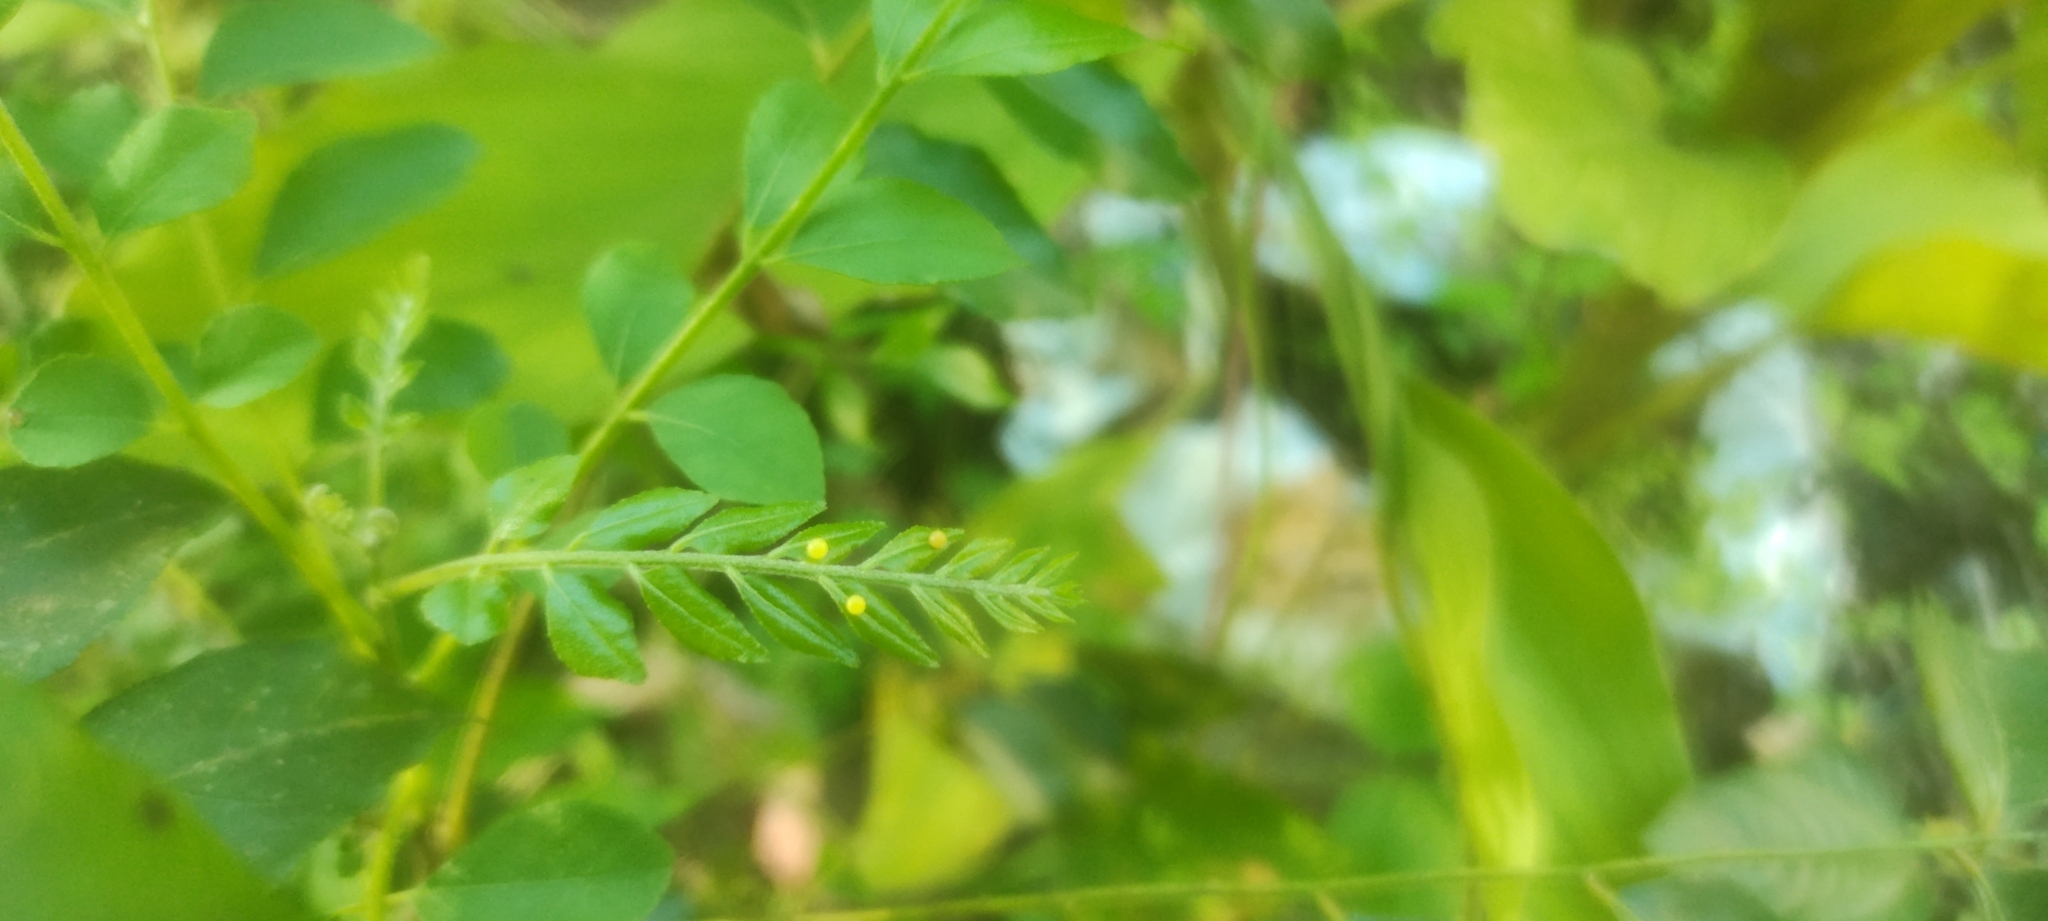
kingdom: Animalia
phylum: Arthropoda
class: Insecta
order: Lepidoptera
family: Papilionidae
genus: Papilio
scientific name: Papilio polytes
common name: Common mormon
